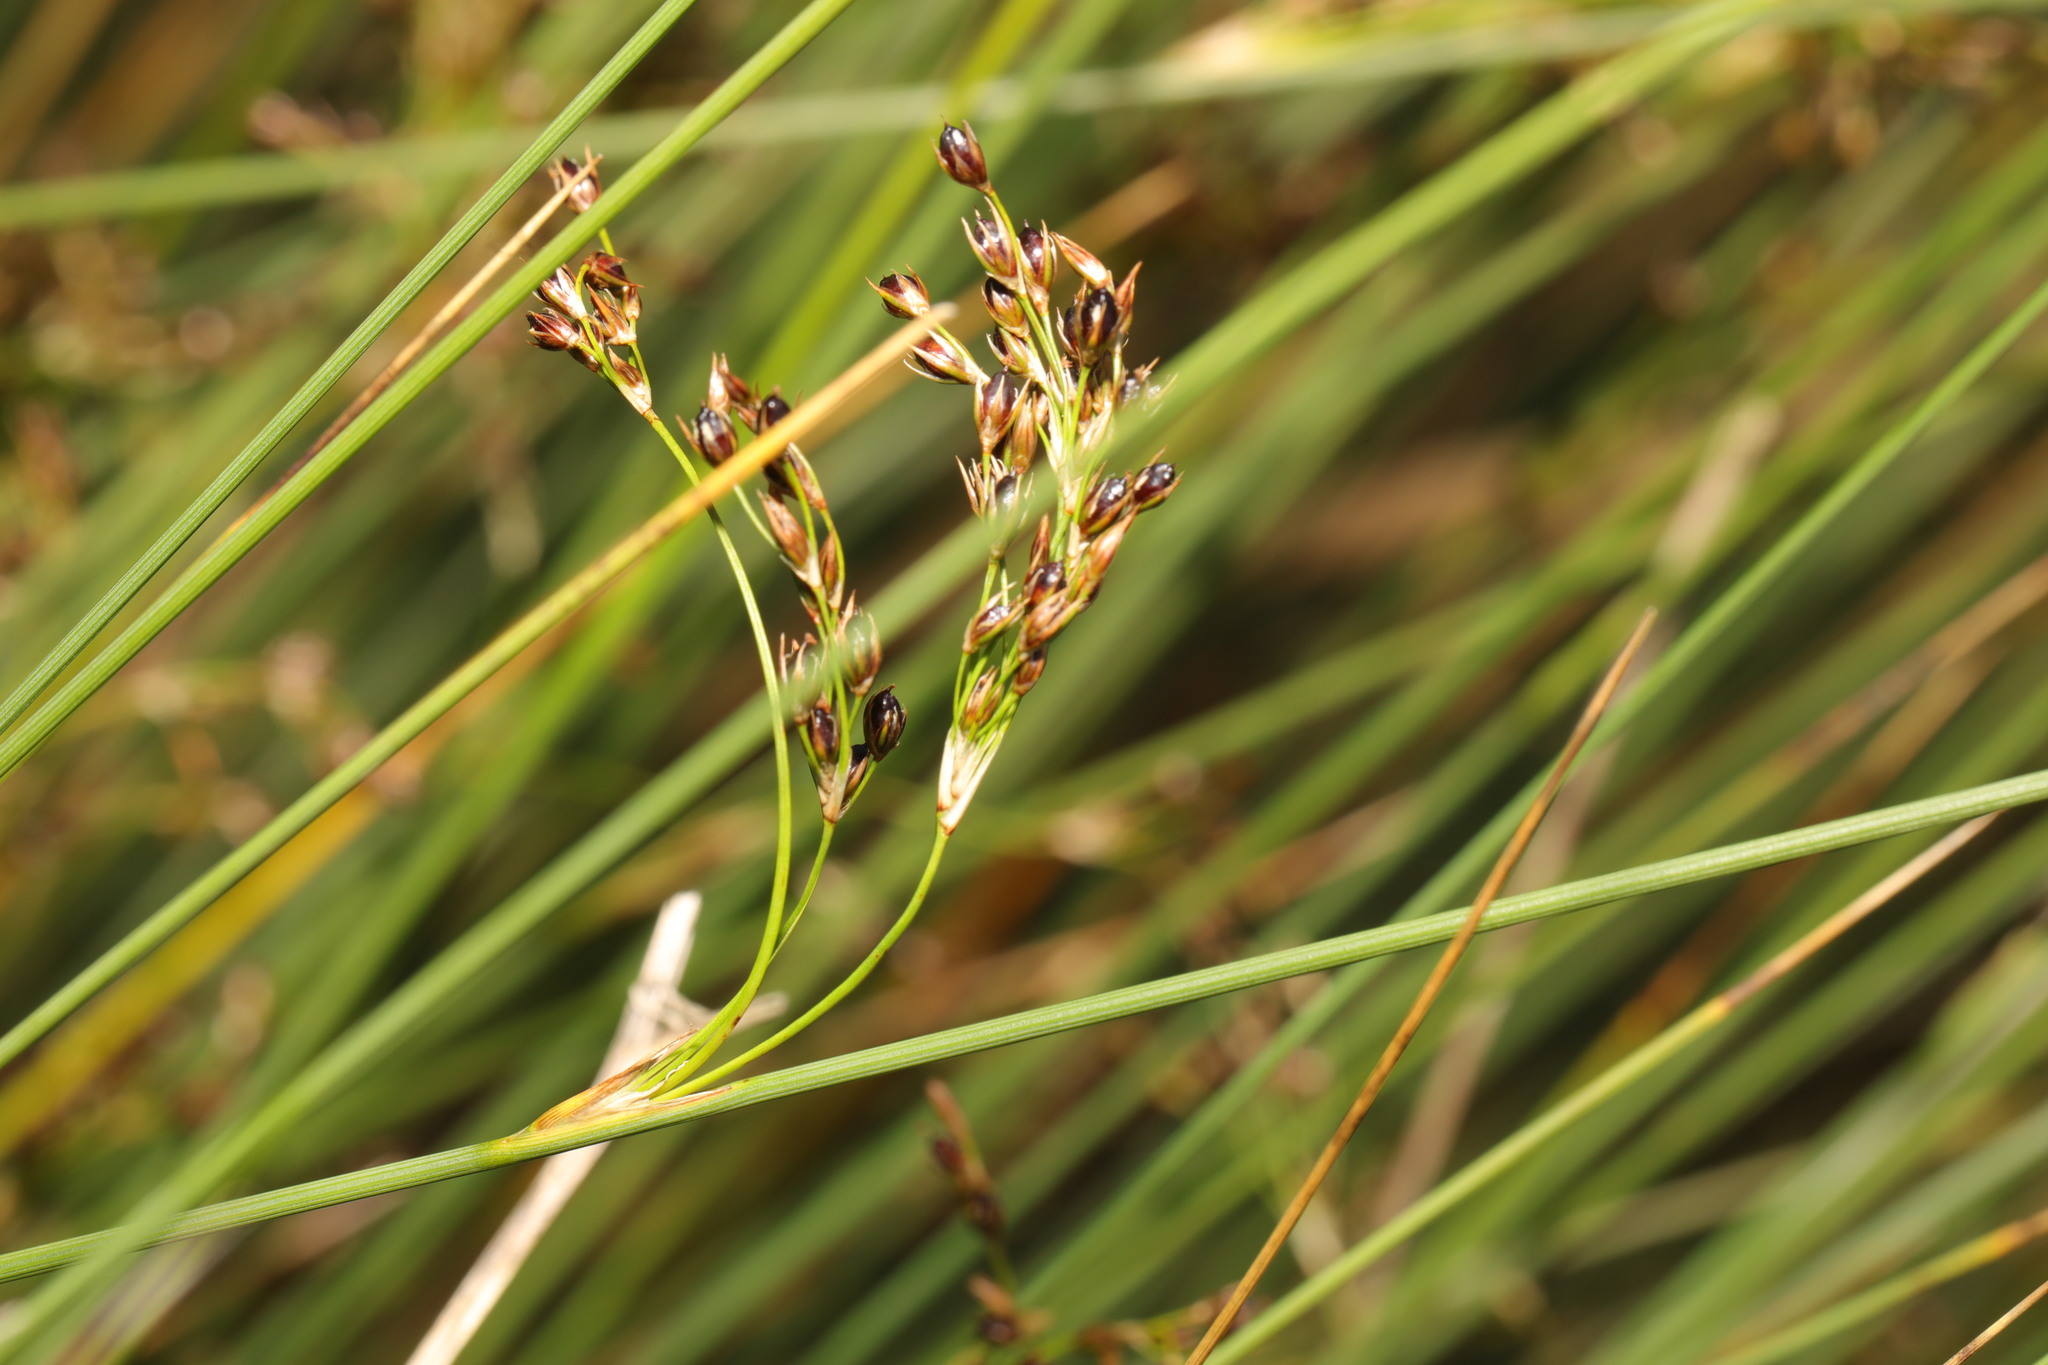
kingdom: Plantae
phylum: Tracheophyta
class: Liliopsida
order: Poales
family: Juncaceae
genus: Juncus
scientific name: Juncus inflexus
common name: Hard rush
